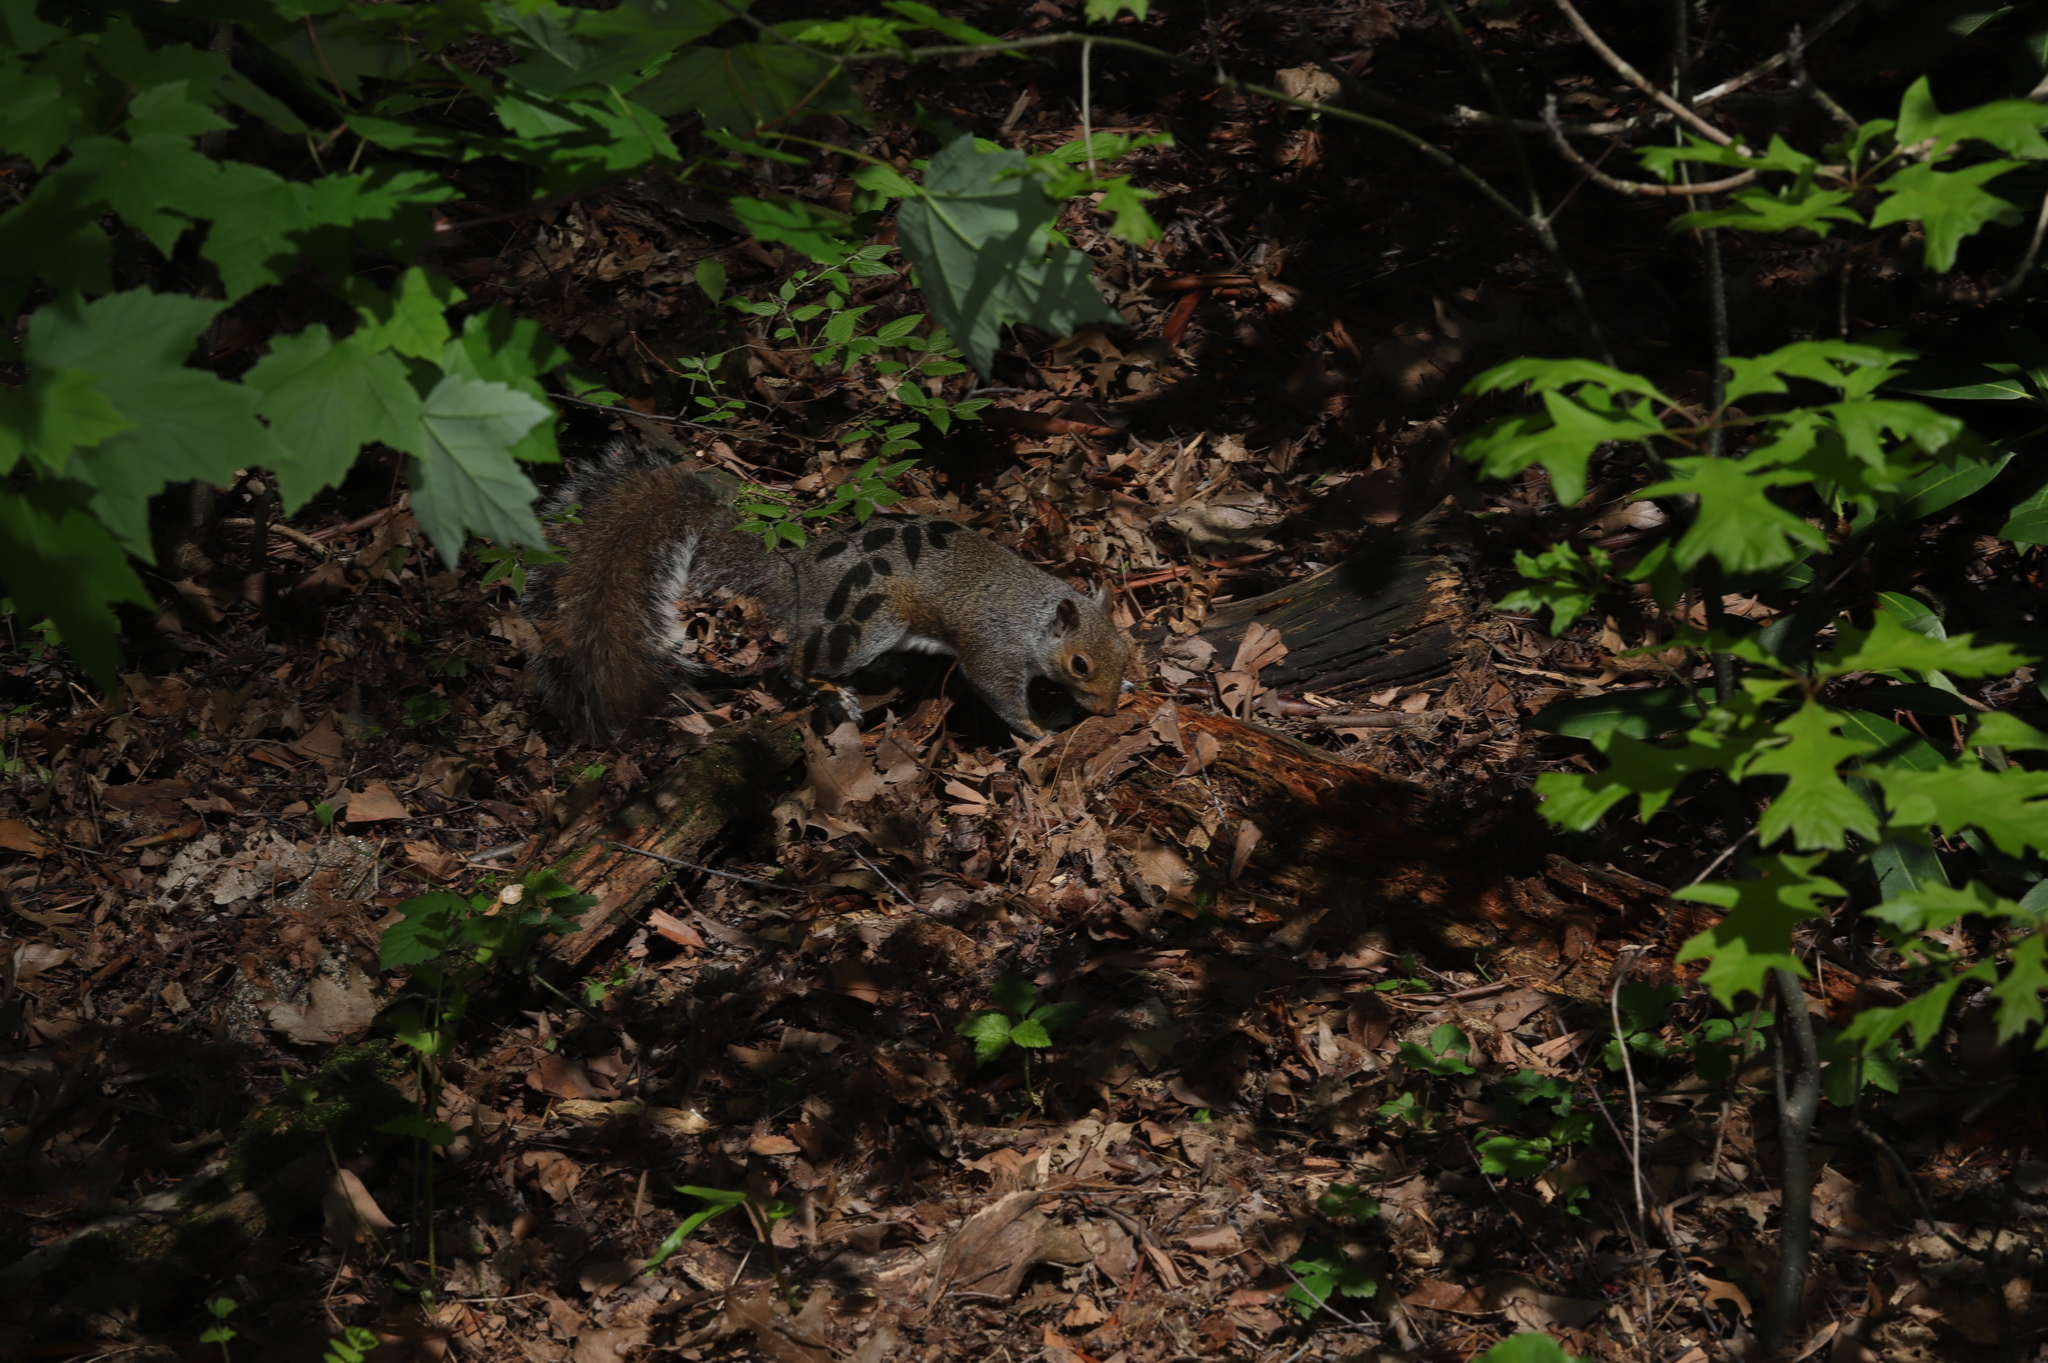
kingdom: Animalia
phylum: Chordata
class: Mammalia
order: Rodentia
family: Sciuridae
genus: Sciurus
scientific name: Sciurus carolinensis
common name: Eastern gray squirrel
